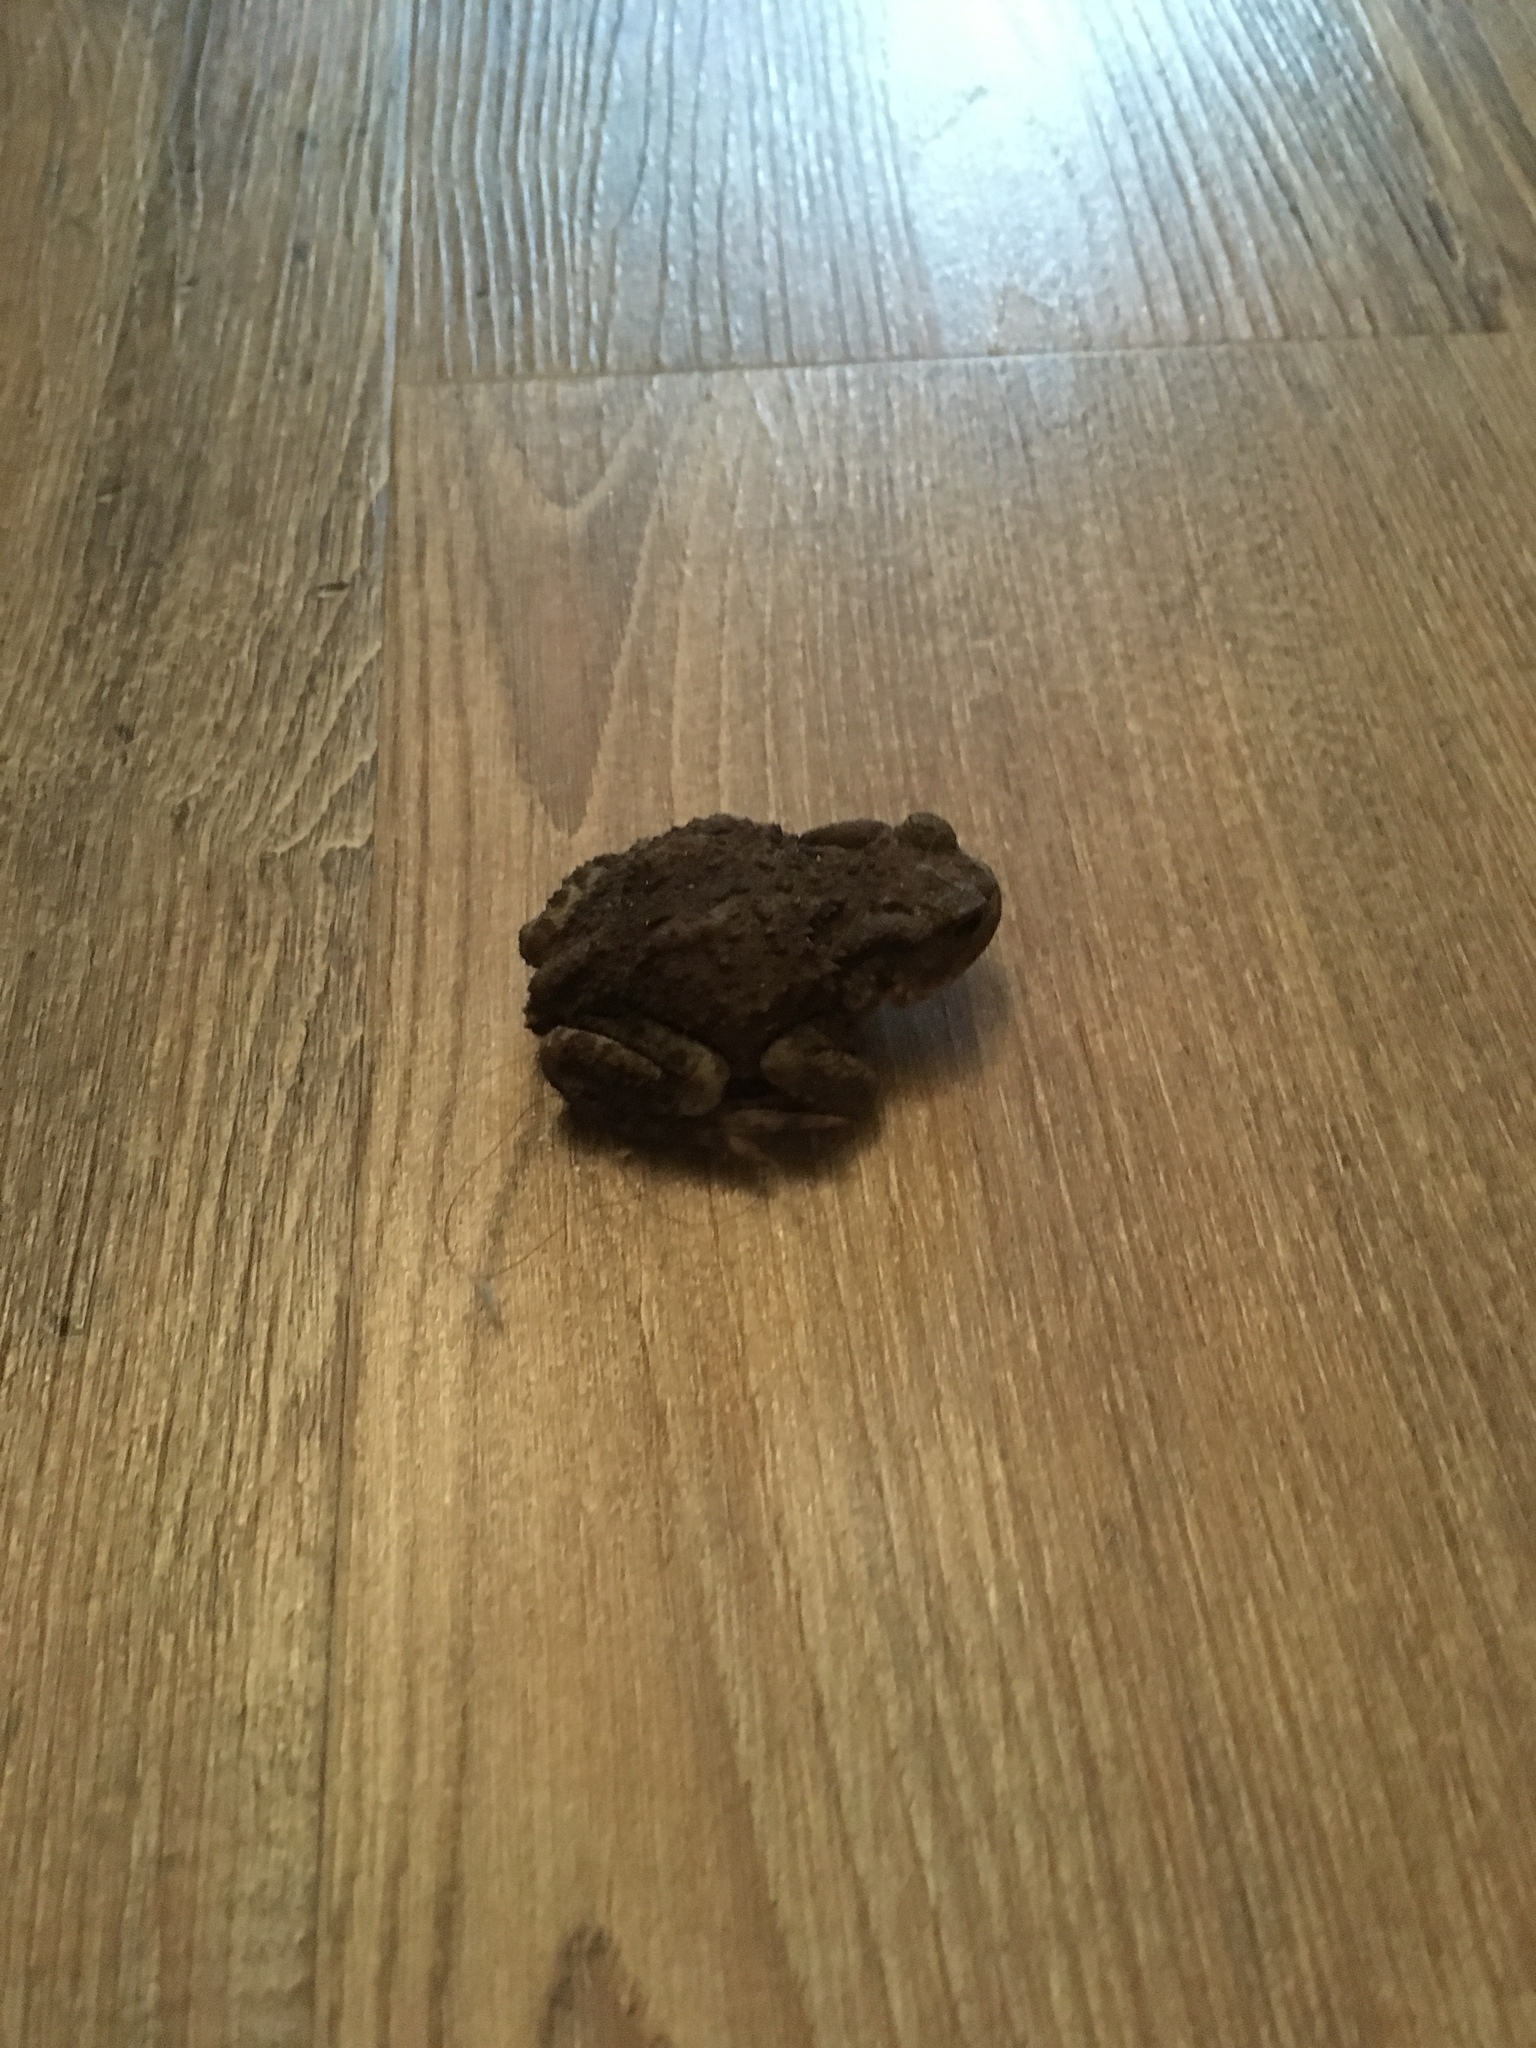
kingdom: Animalia
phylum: Chordata
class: Amphibia
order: Anura
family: Bufonidae
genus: Bufo
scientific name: Bufo bufo
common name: Common toad
